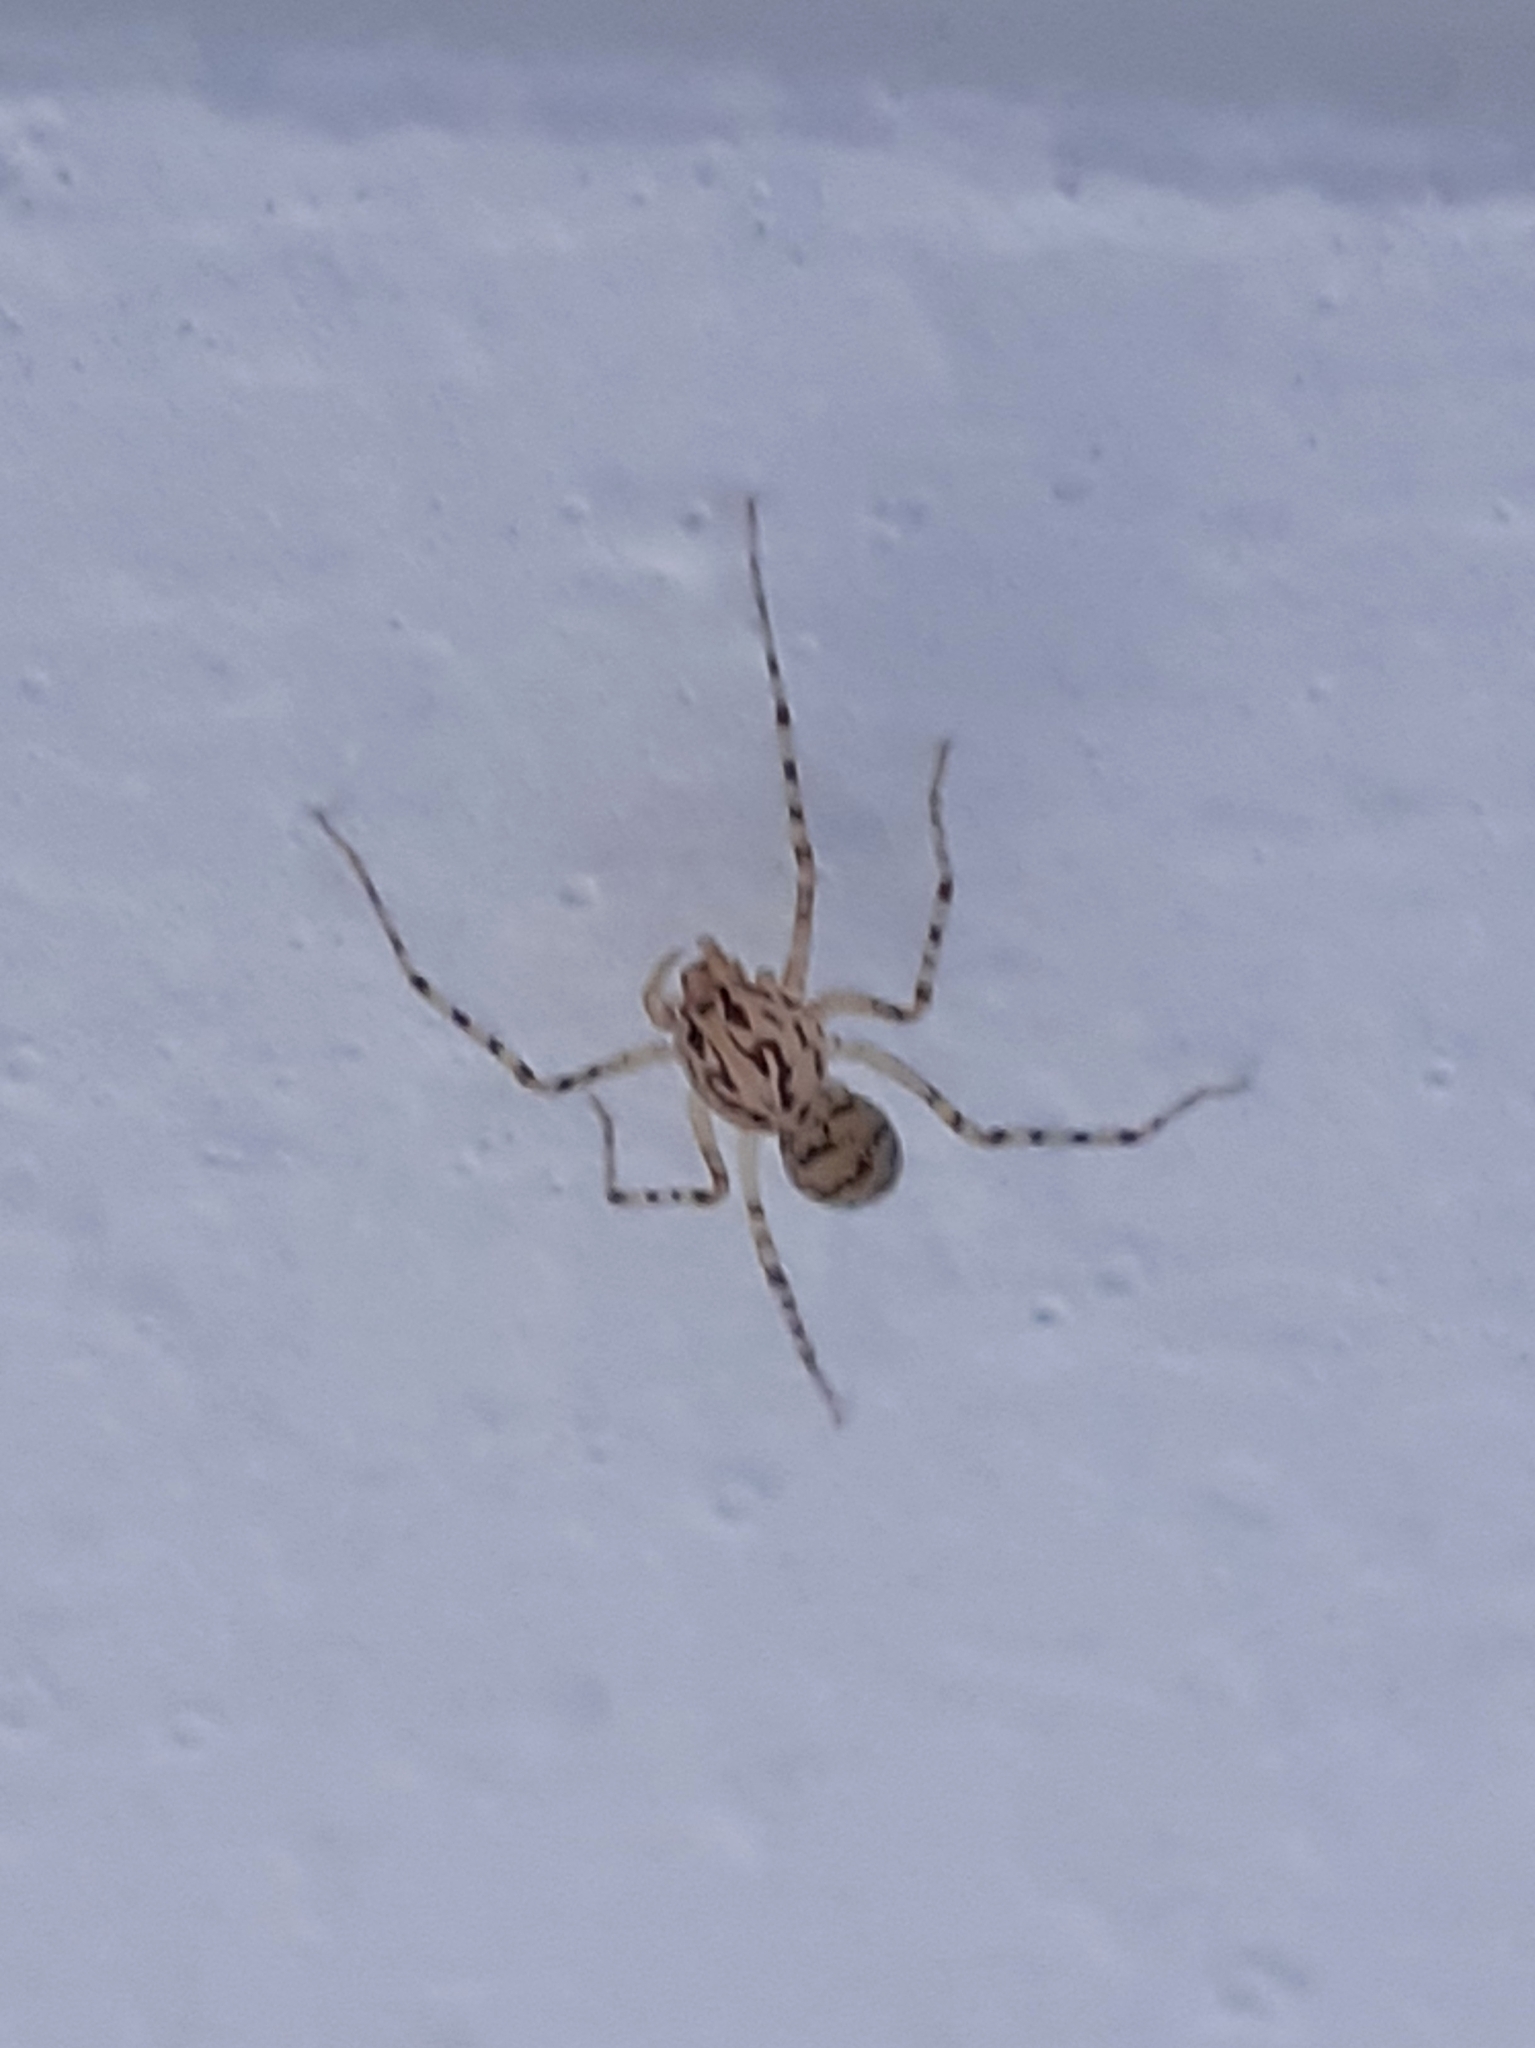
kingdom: Animalia
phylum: Arthropoda
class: Arachnida
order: Araneae
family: Scytodidae
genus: Scytodes
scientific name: Scytodes thoracica
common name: Spitting spider
